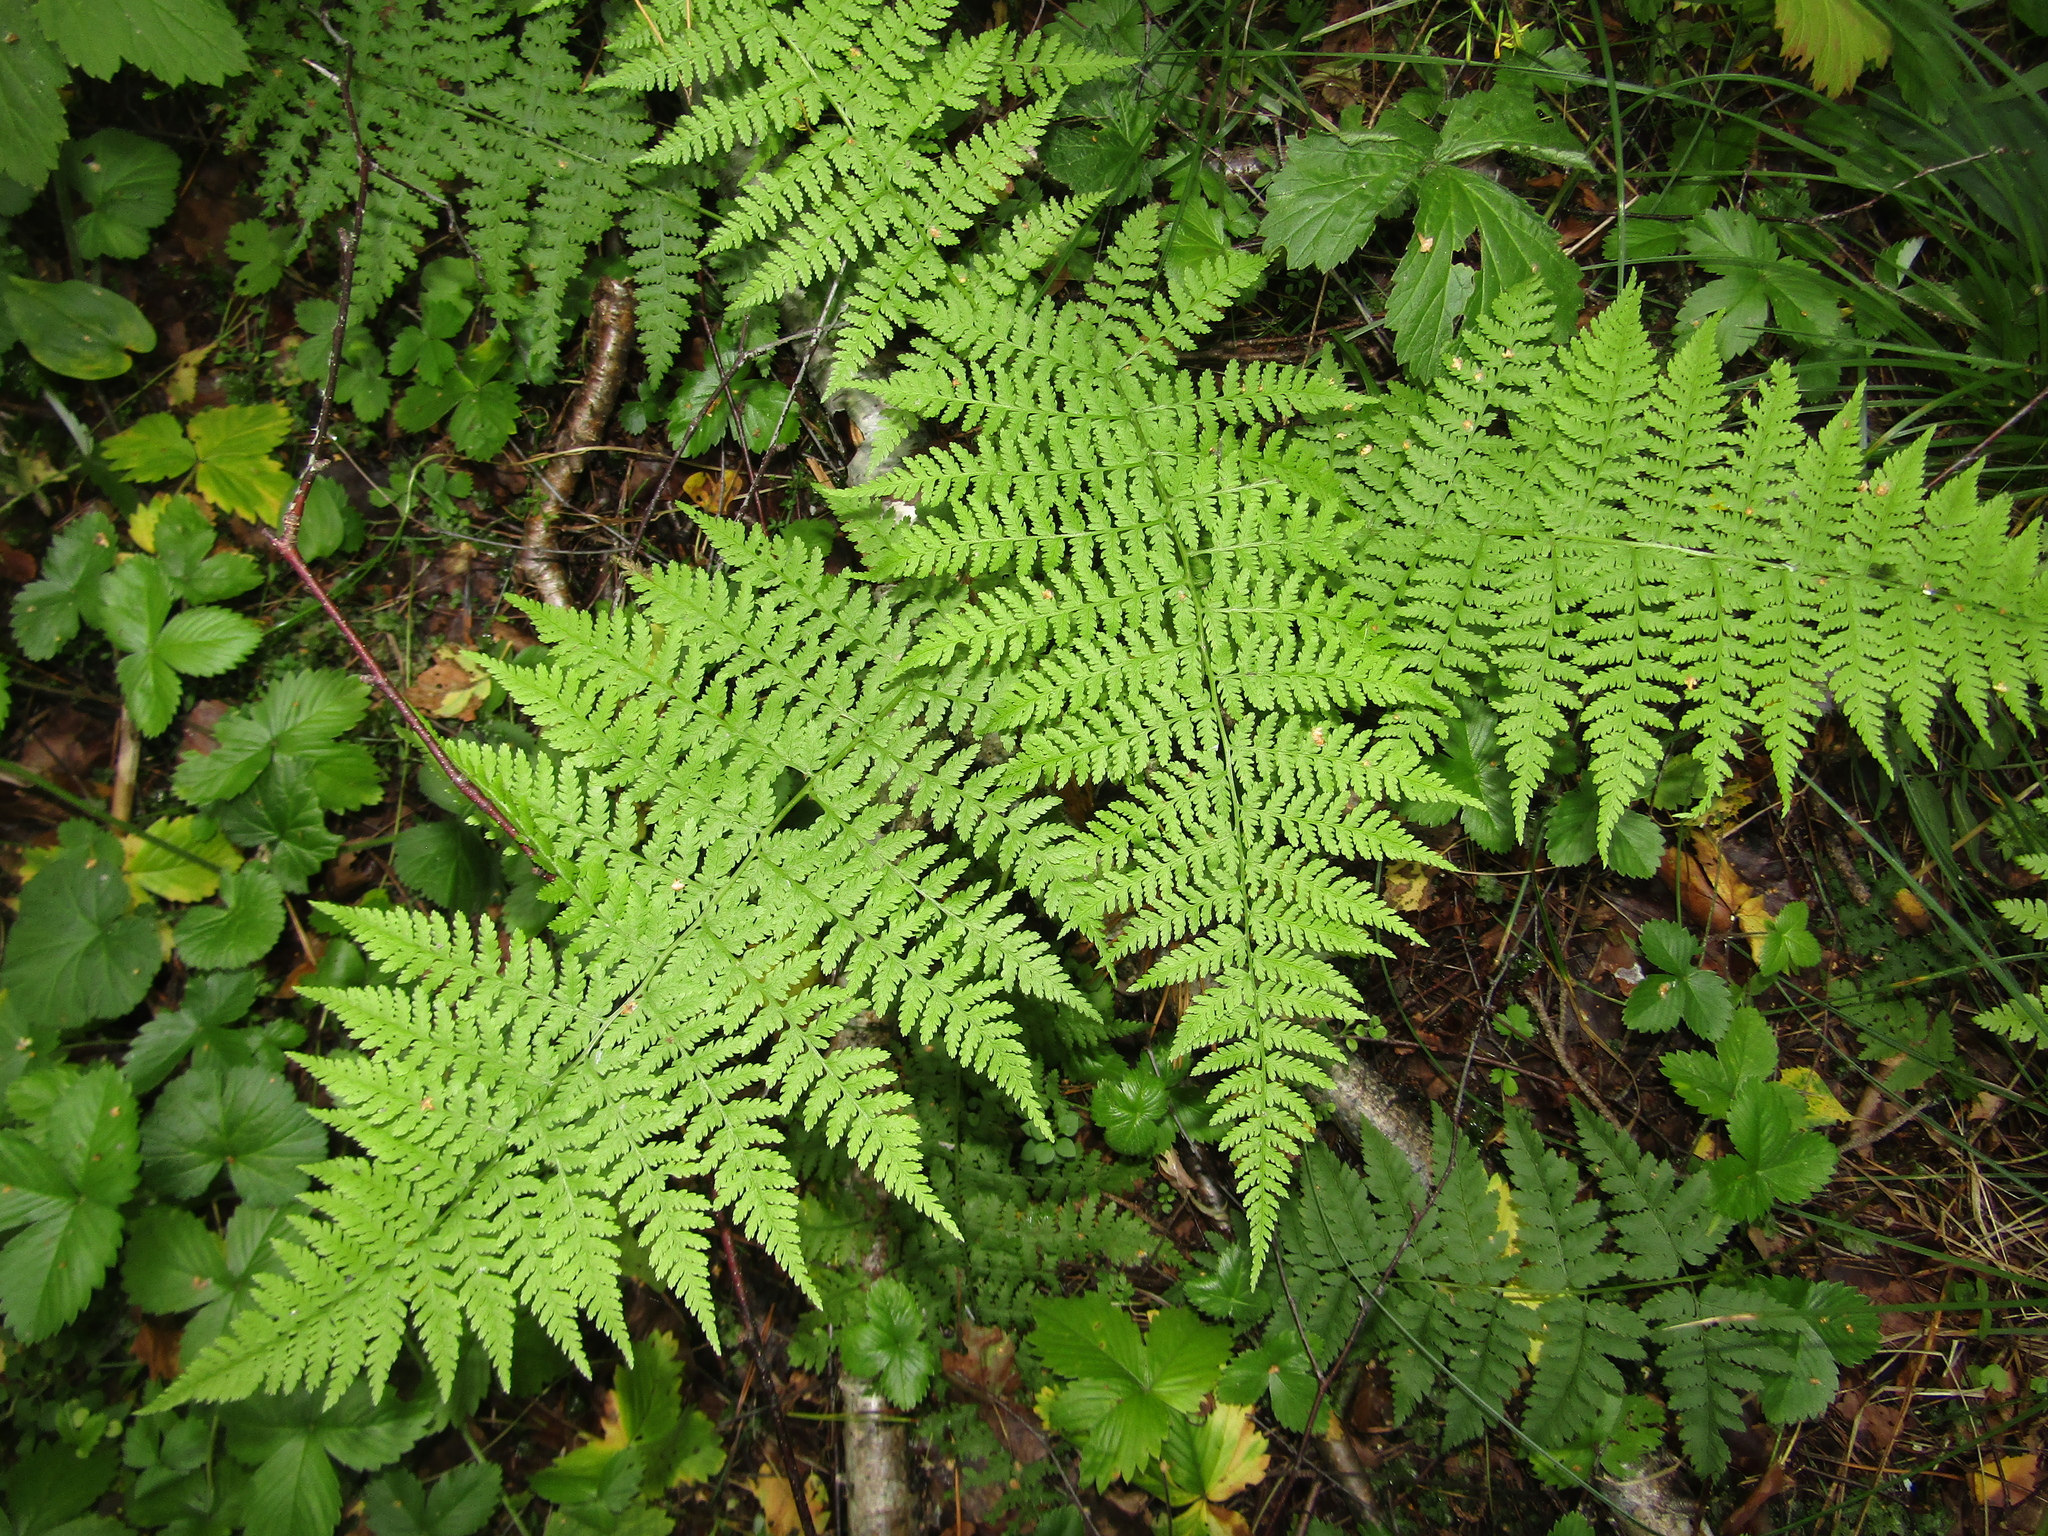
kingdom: Plantae
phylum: Tracheophyta
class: Polypodiopsida
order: Polypodiales
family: Athyriaceae
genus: Athyrium
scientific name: Athyrium filix-femina
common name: Lady fern
